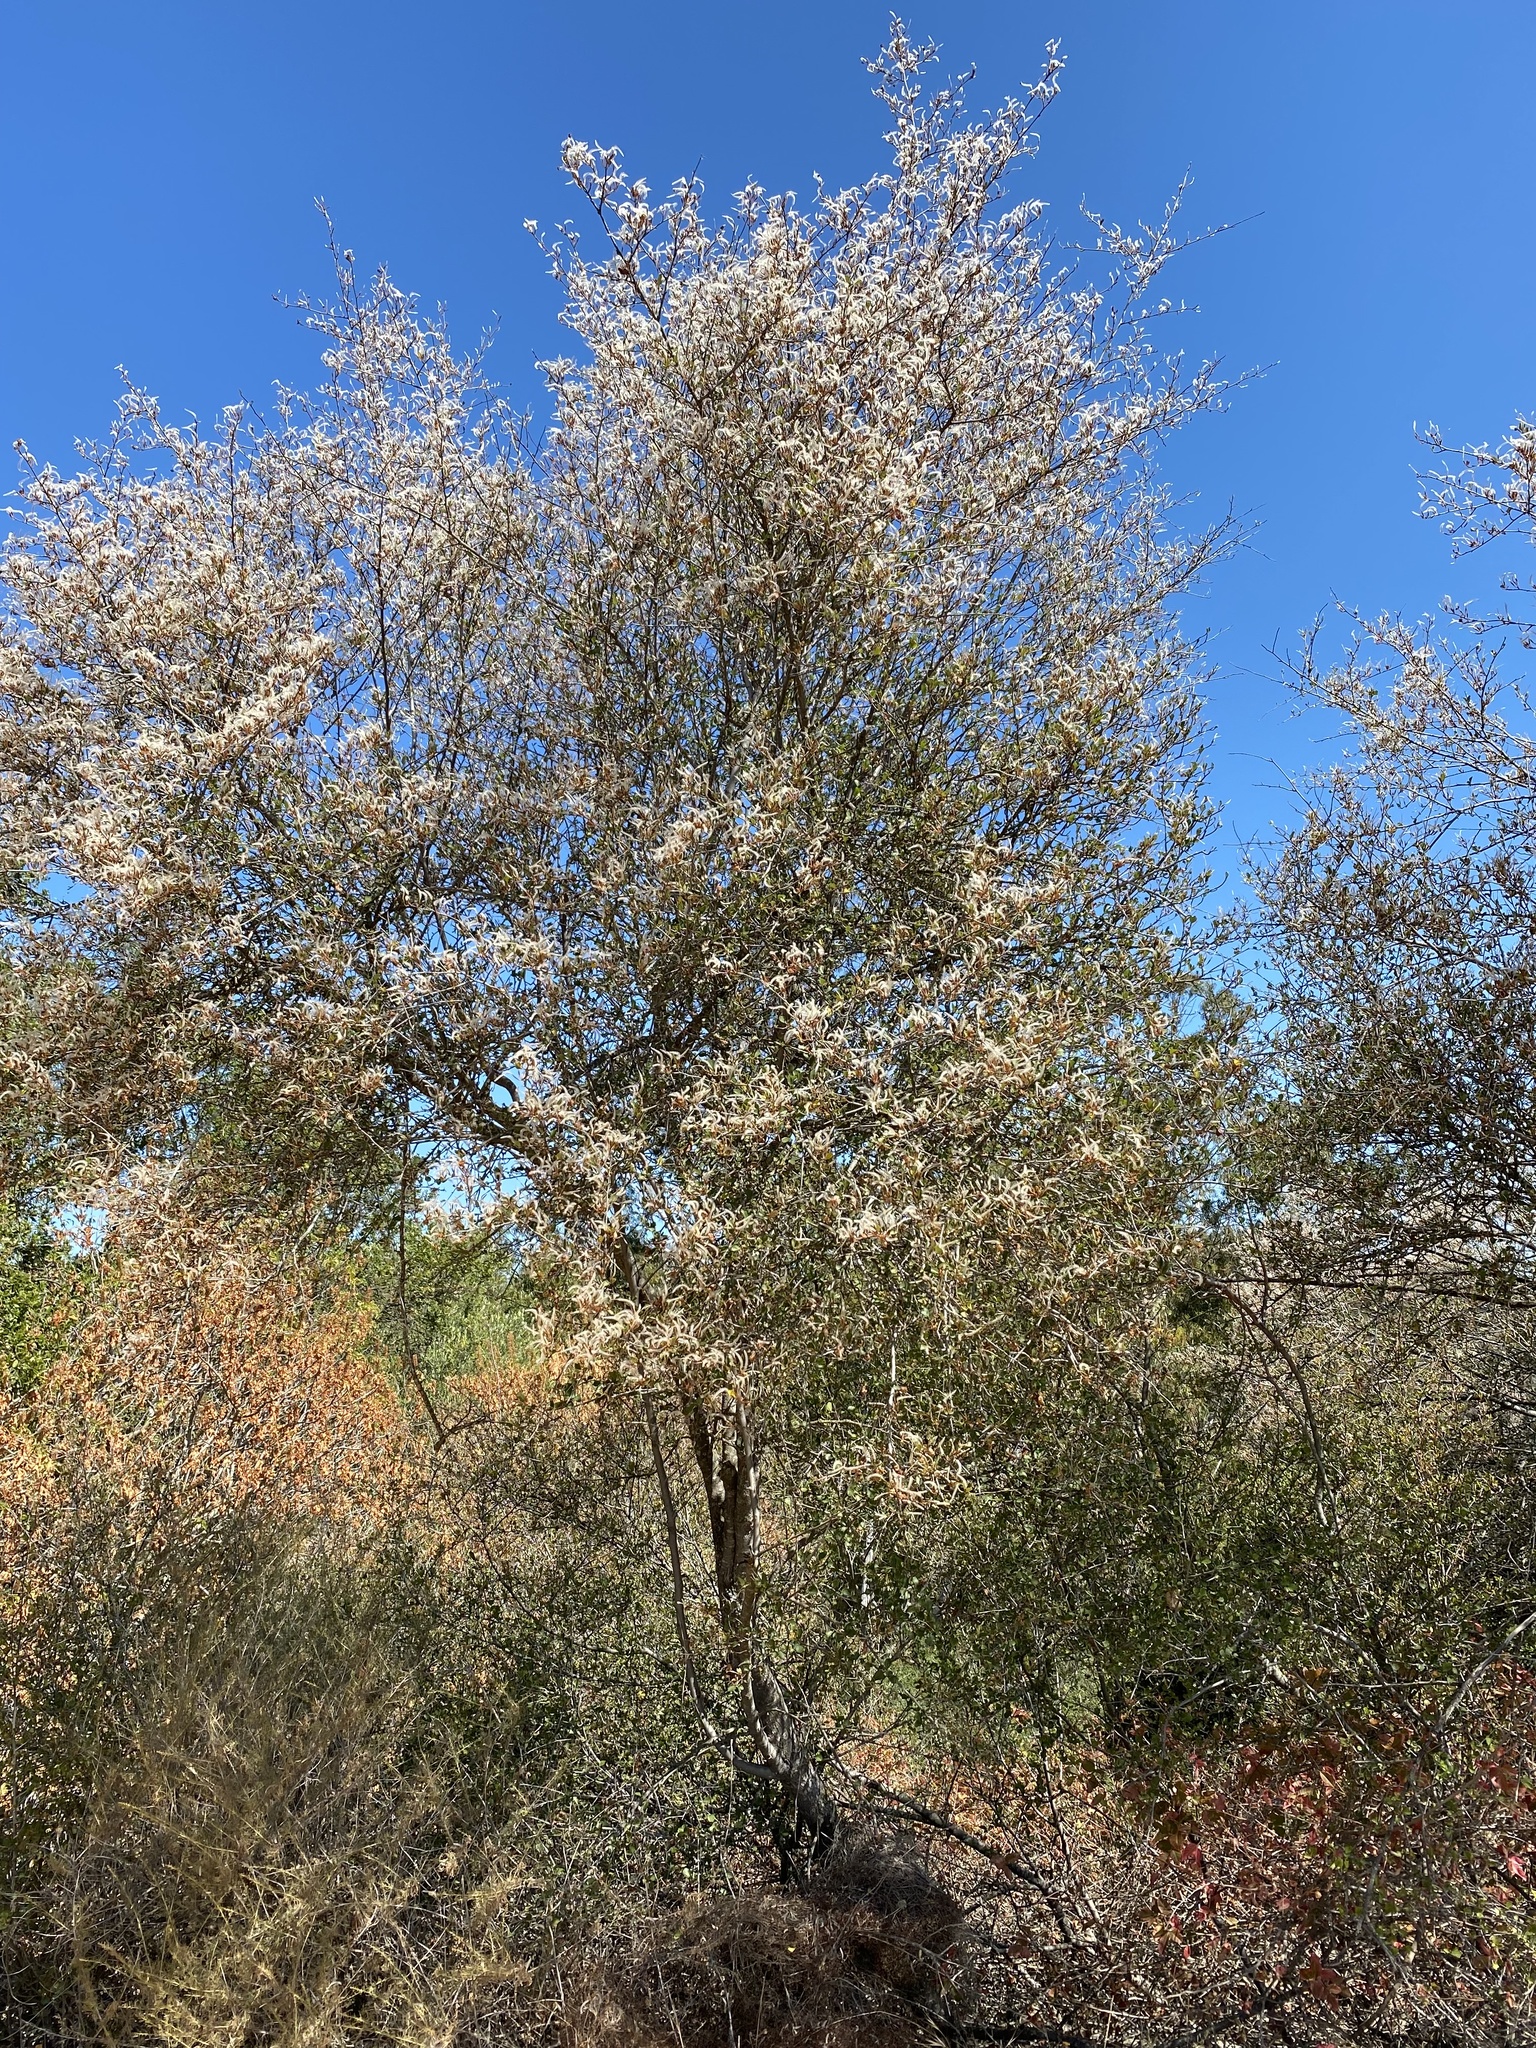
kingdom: Plantae
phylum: Tracheophyta
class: Magnoliopsida
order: Rosales
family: Rosaceae
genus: Cercocarpus
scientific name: Cercocarpus betuloides
